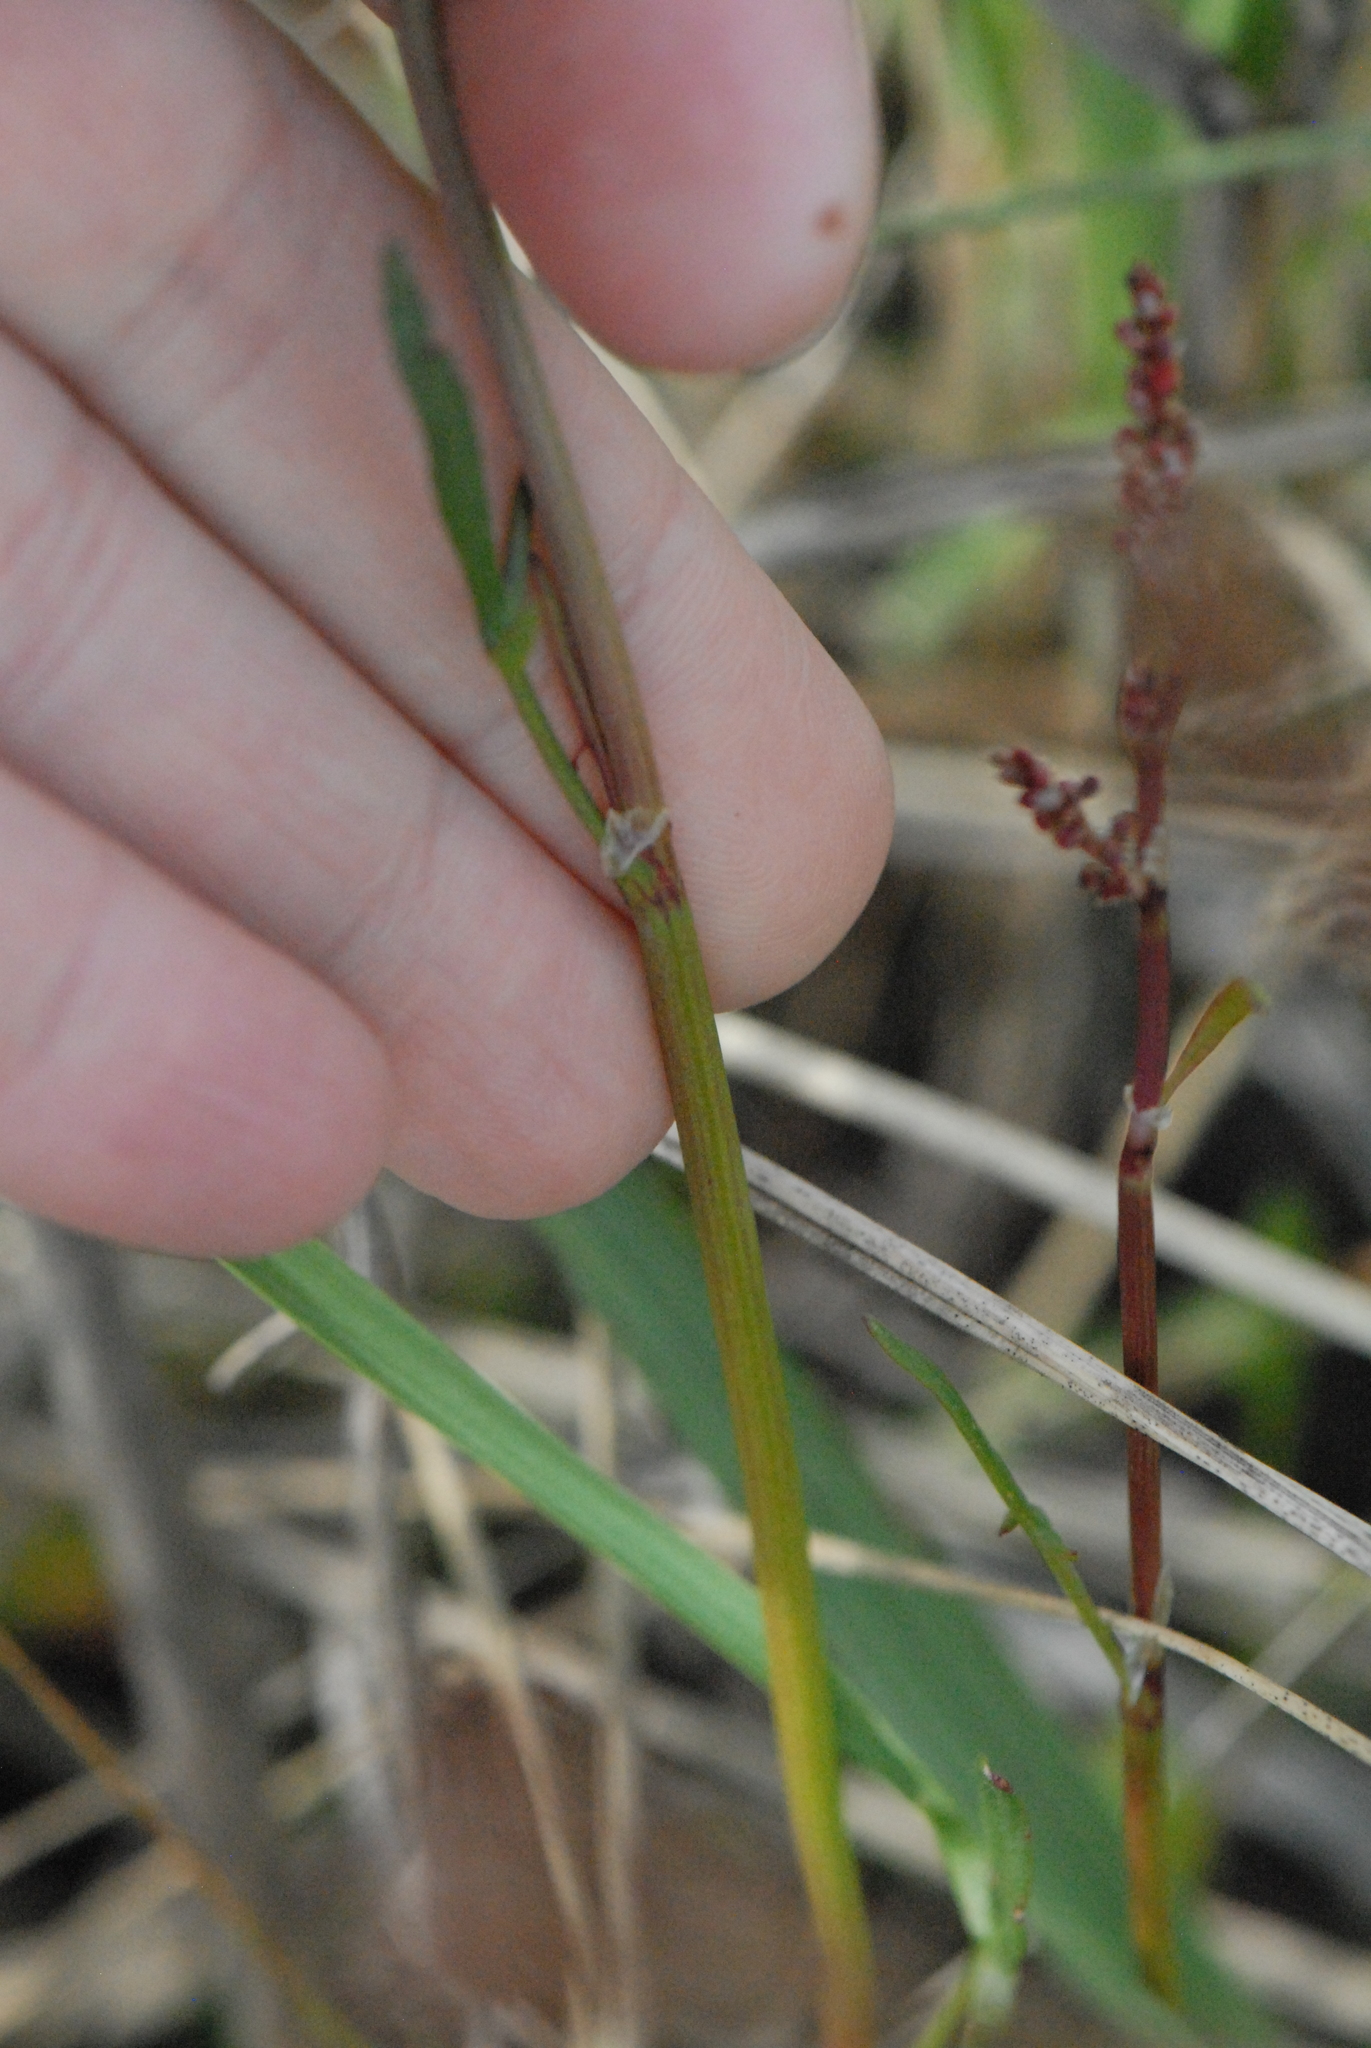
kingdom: Plantae
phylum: Tracheophyta
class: Magnoliopsida
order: Caryophyllales
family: Polygonaceae
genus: Rumex
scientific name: Rumex acetosella
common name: Common sheep sorrel
